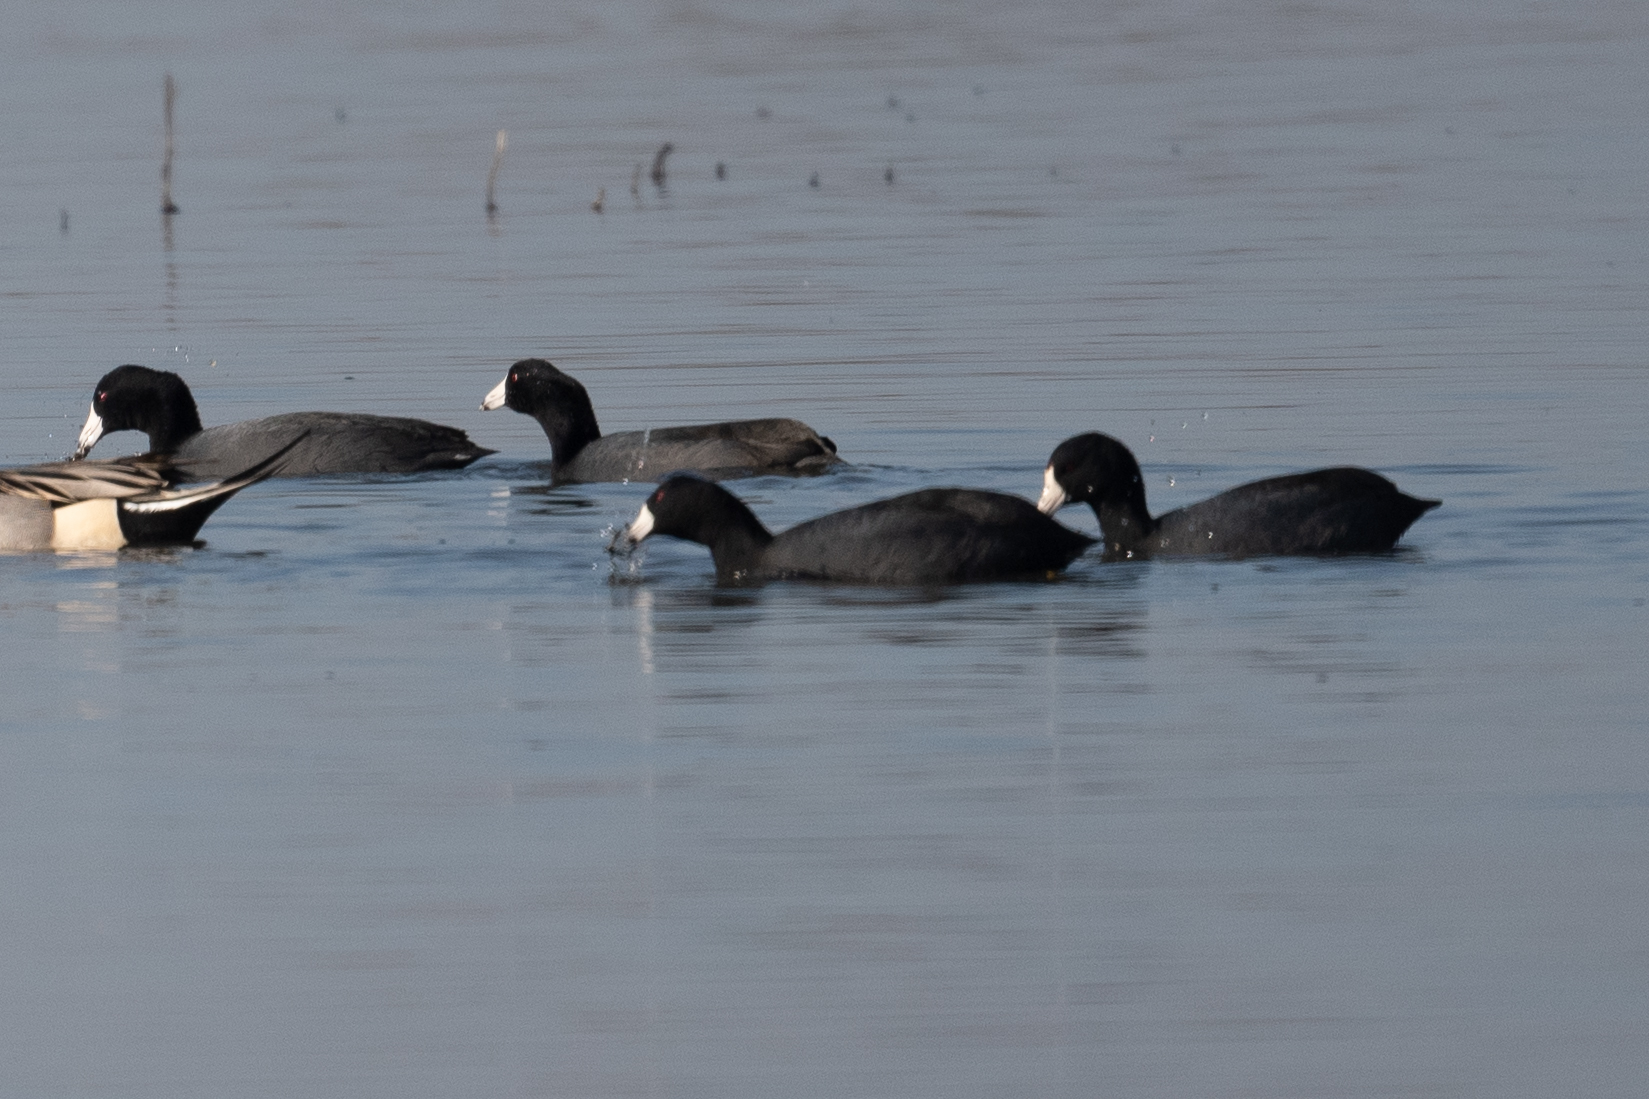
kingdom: Animalia
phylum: Chordata
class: Aves
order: Gruiformes
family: Rallidae
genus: Fulica
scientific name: Fulica americana
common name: American coot
